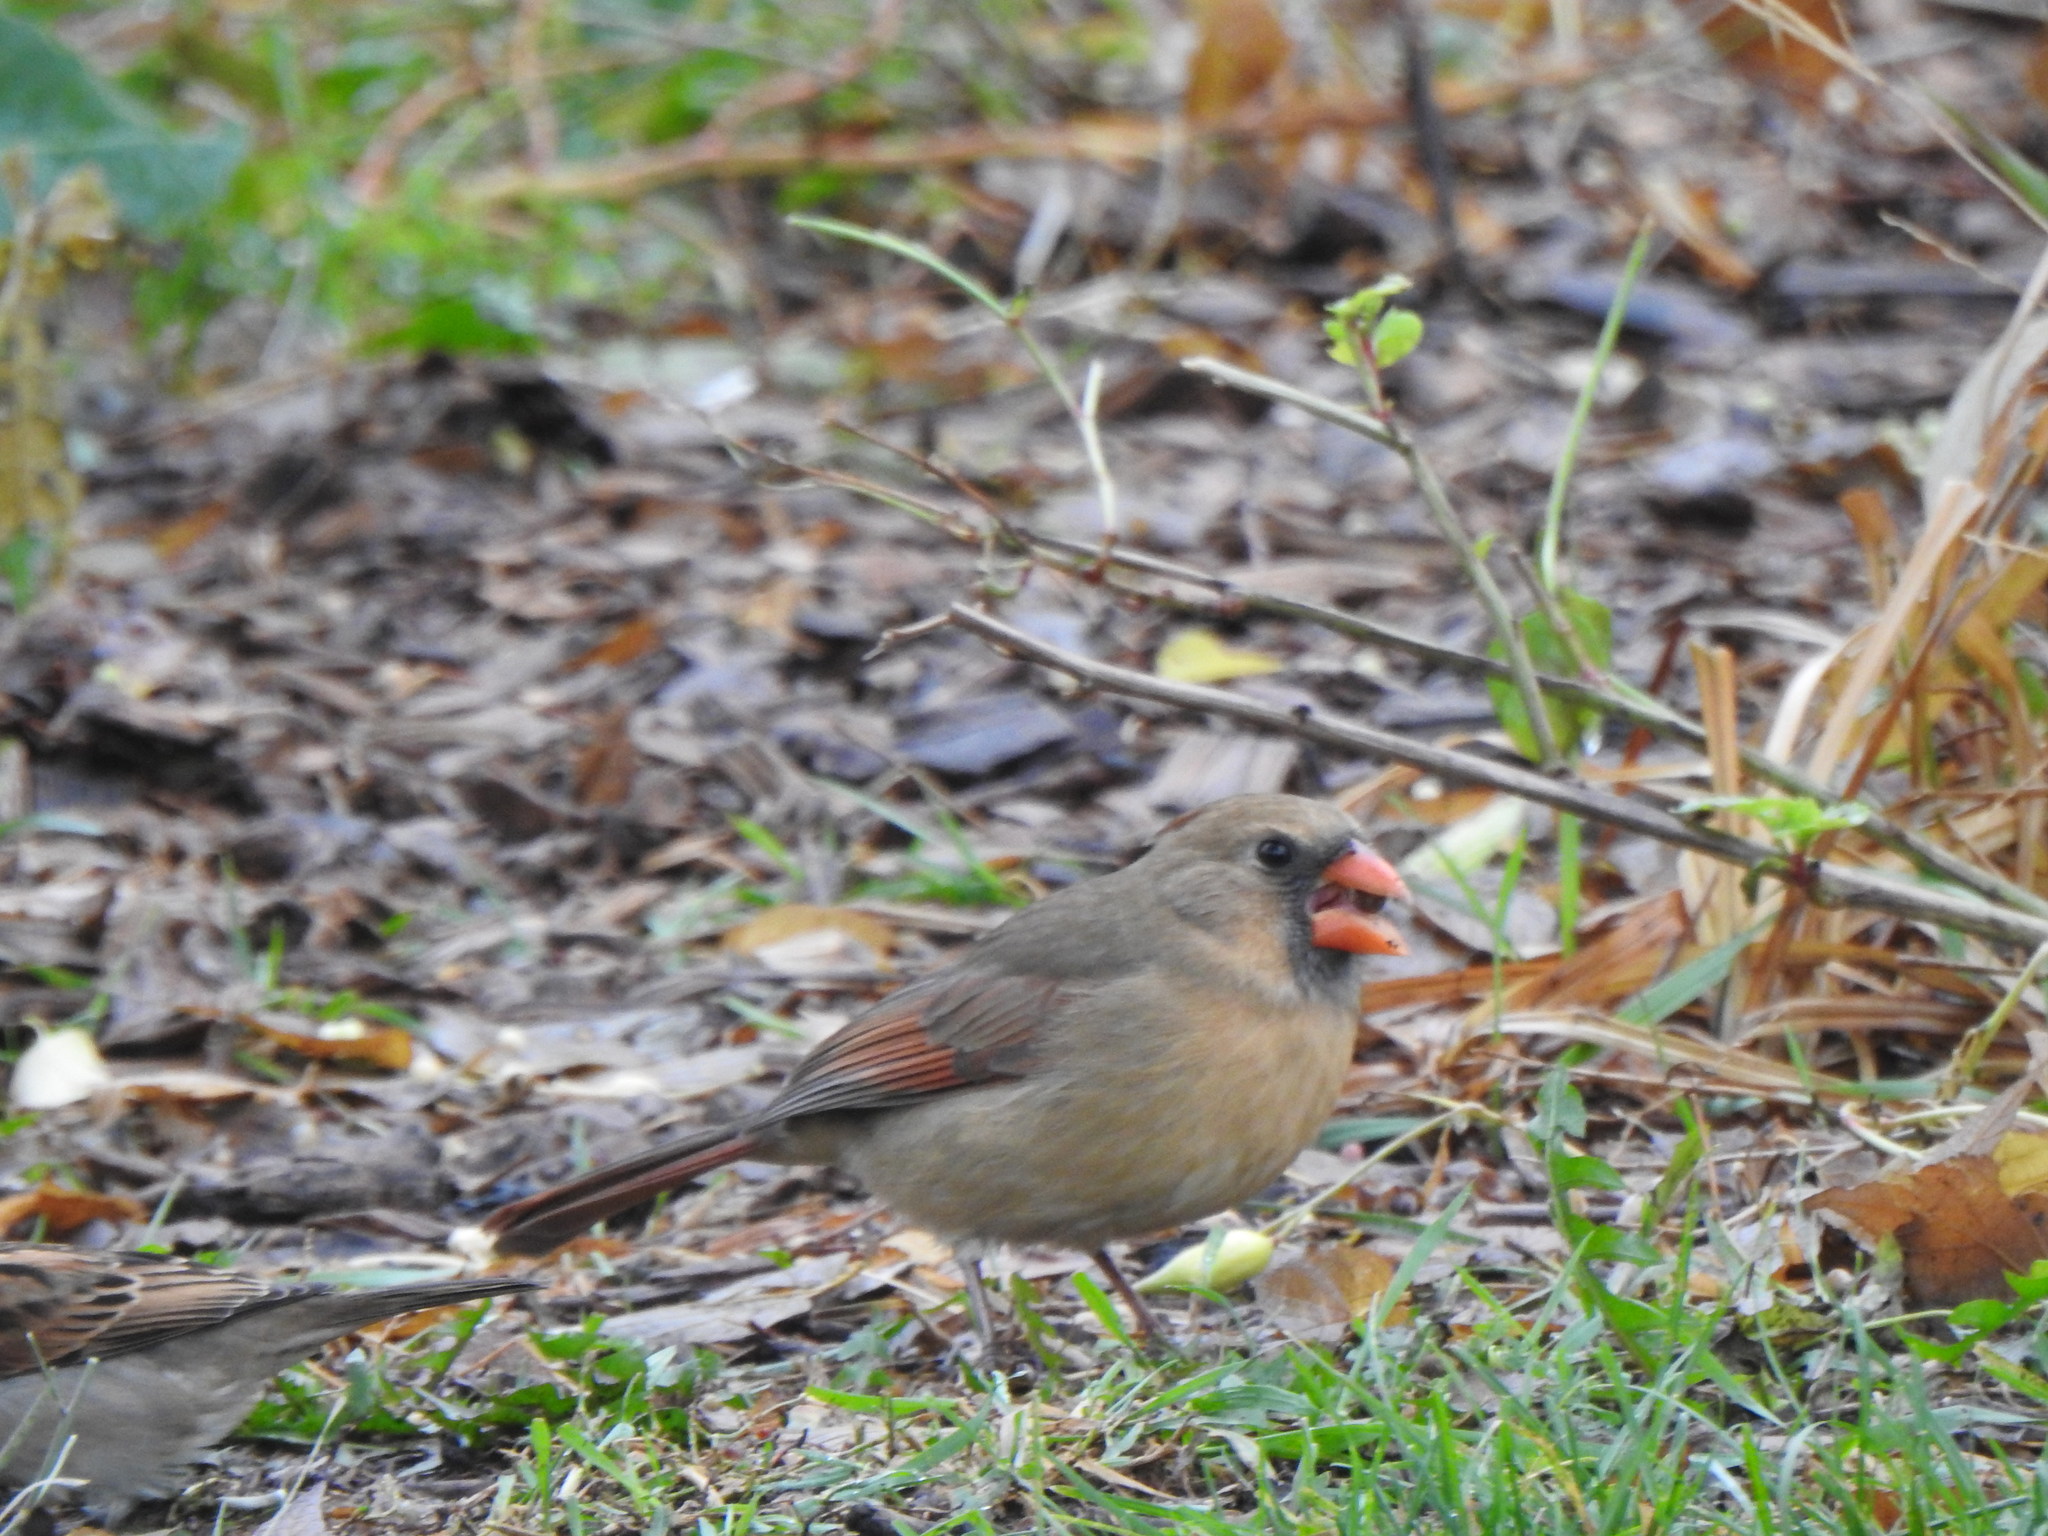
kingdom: Animalia
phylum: Chordata
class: Aves
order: Passeriformes
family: Cardinalidae
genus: Cardinalis
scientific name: Cardinalis cardinalis
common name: Northern cardinal
